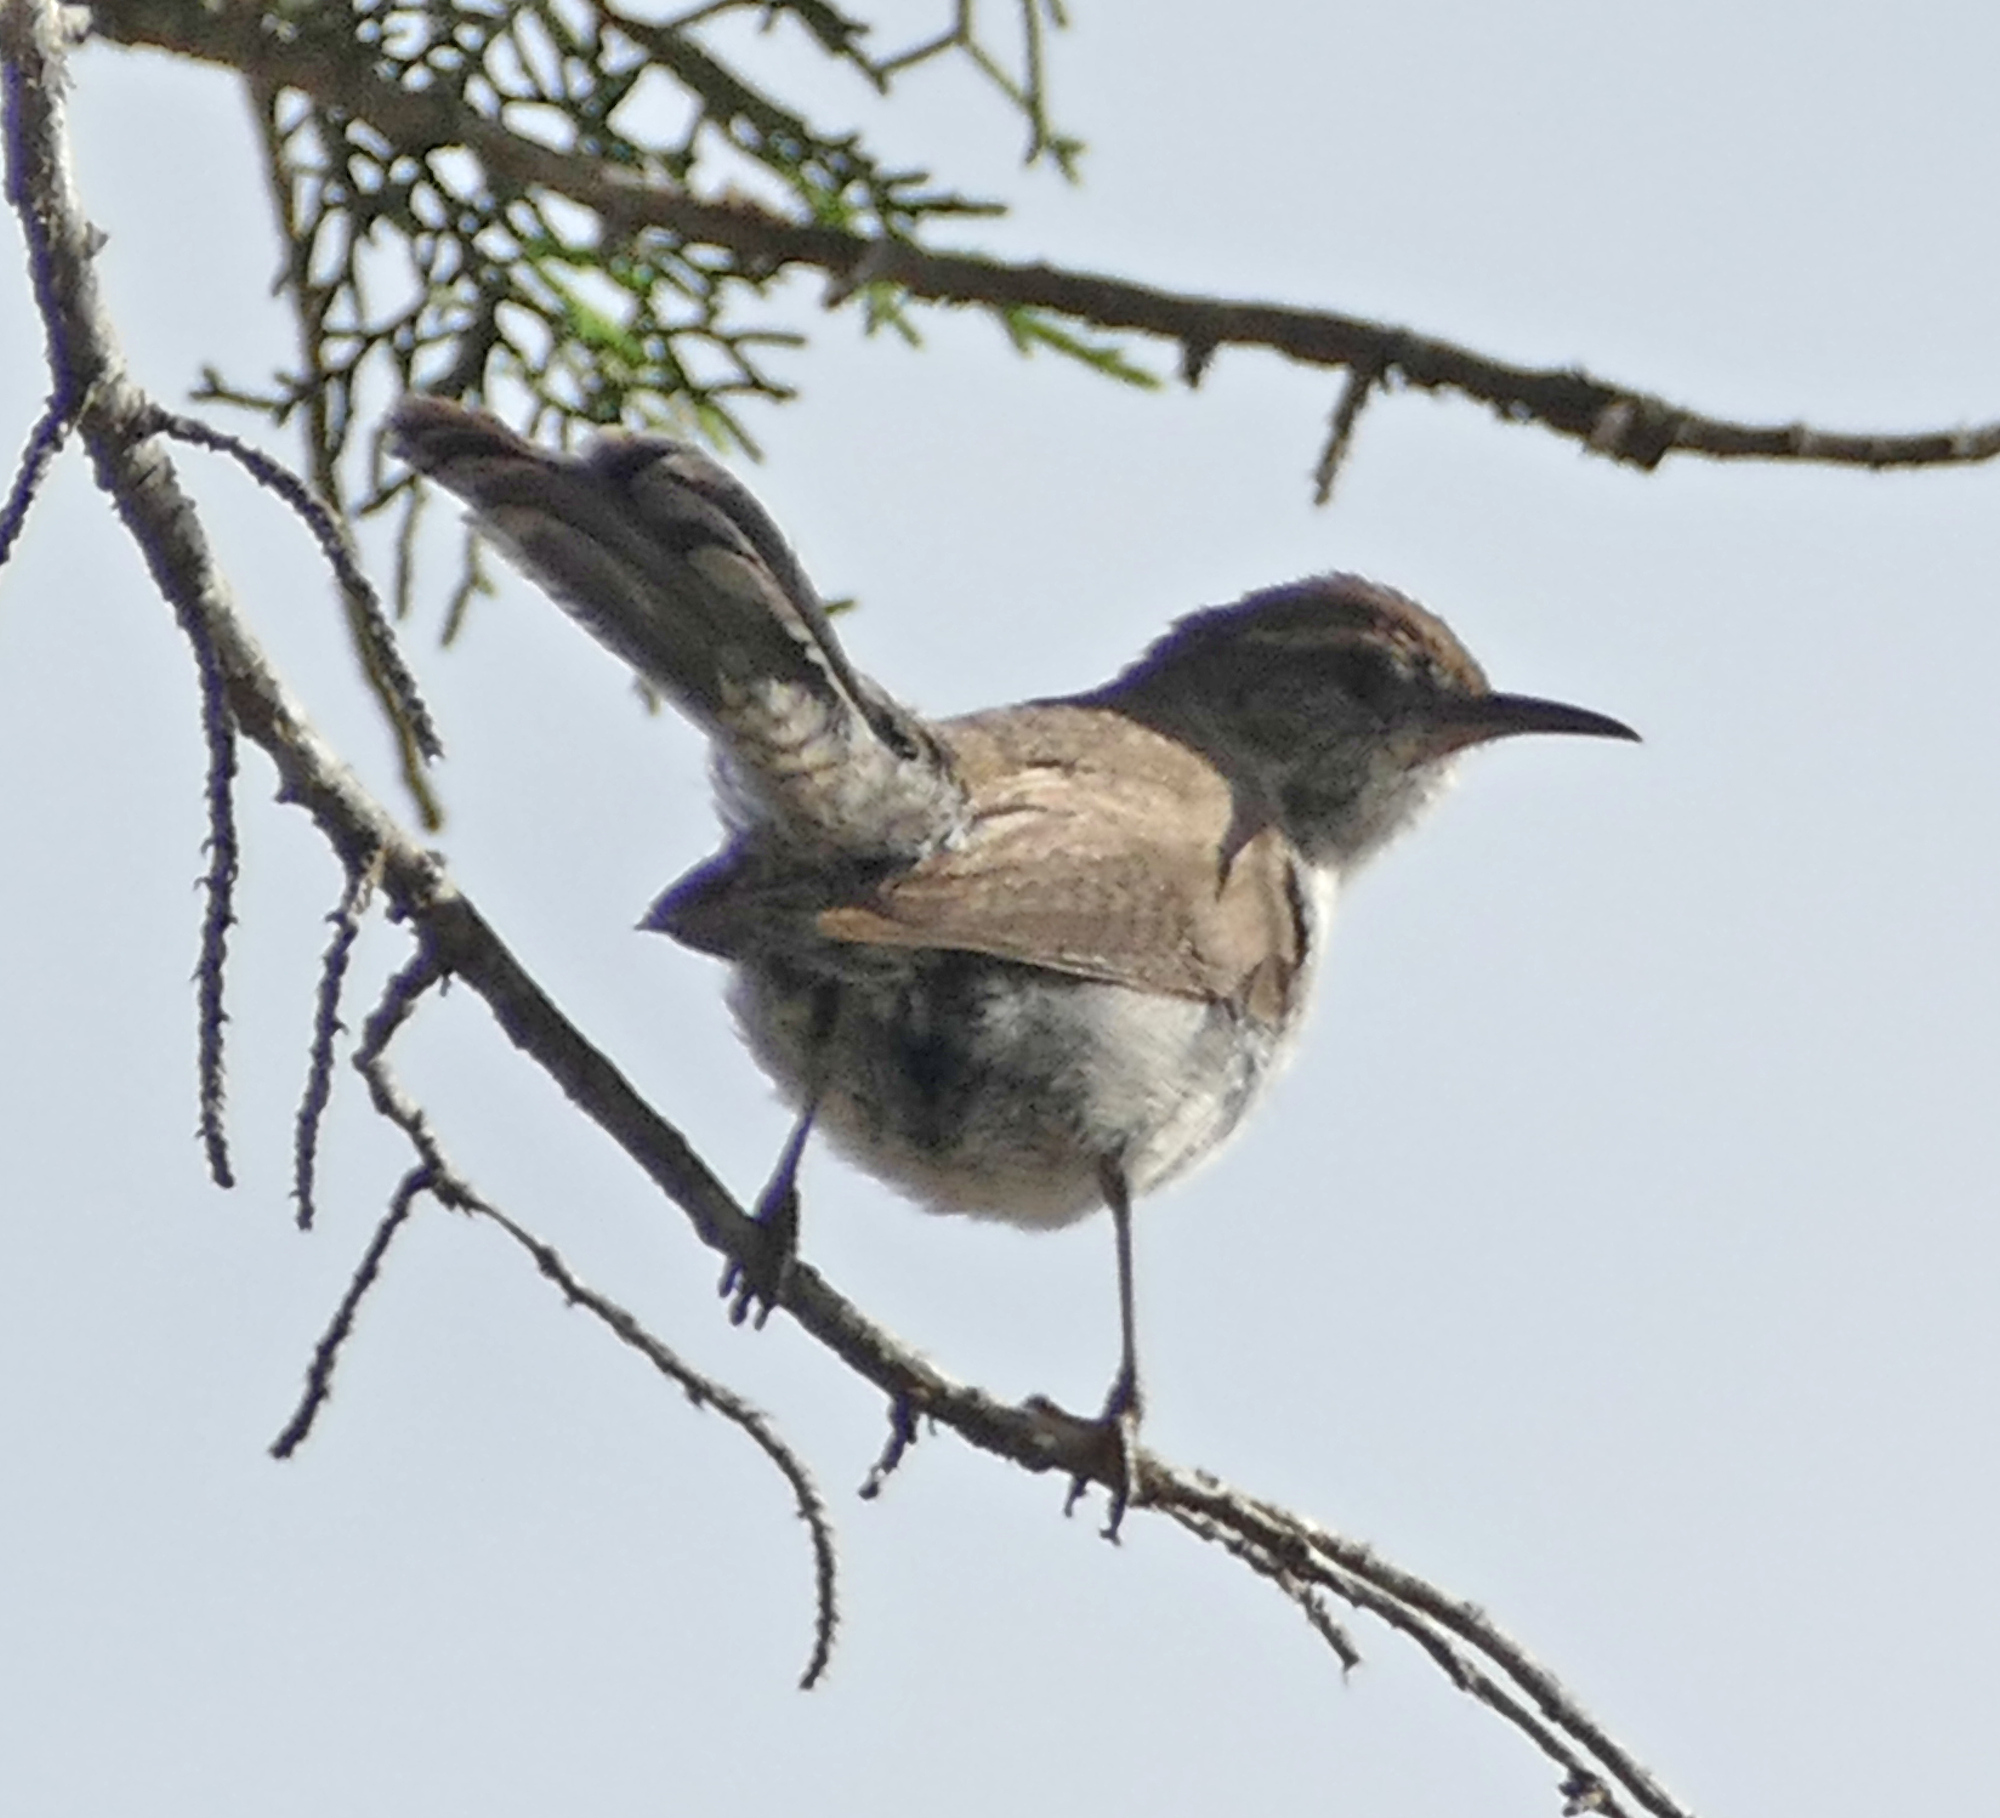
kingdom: Animalia
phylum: Chordata
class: Aves
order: Passeriformes
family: Troglodytidae
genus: Thryomanes
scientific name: Thryomanes bewickii
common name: Bewick's wren
